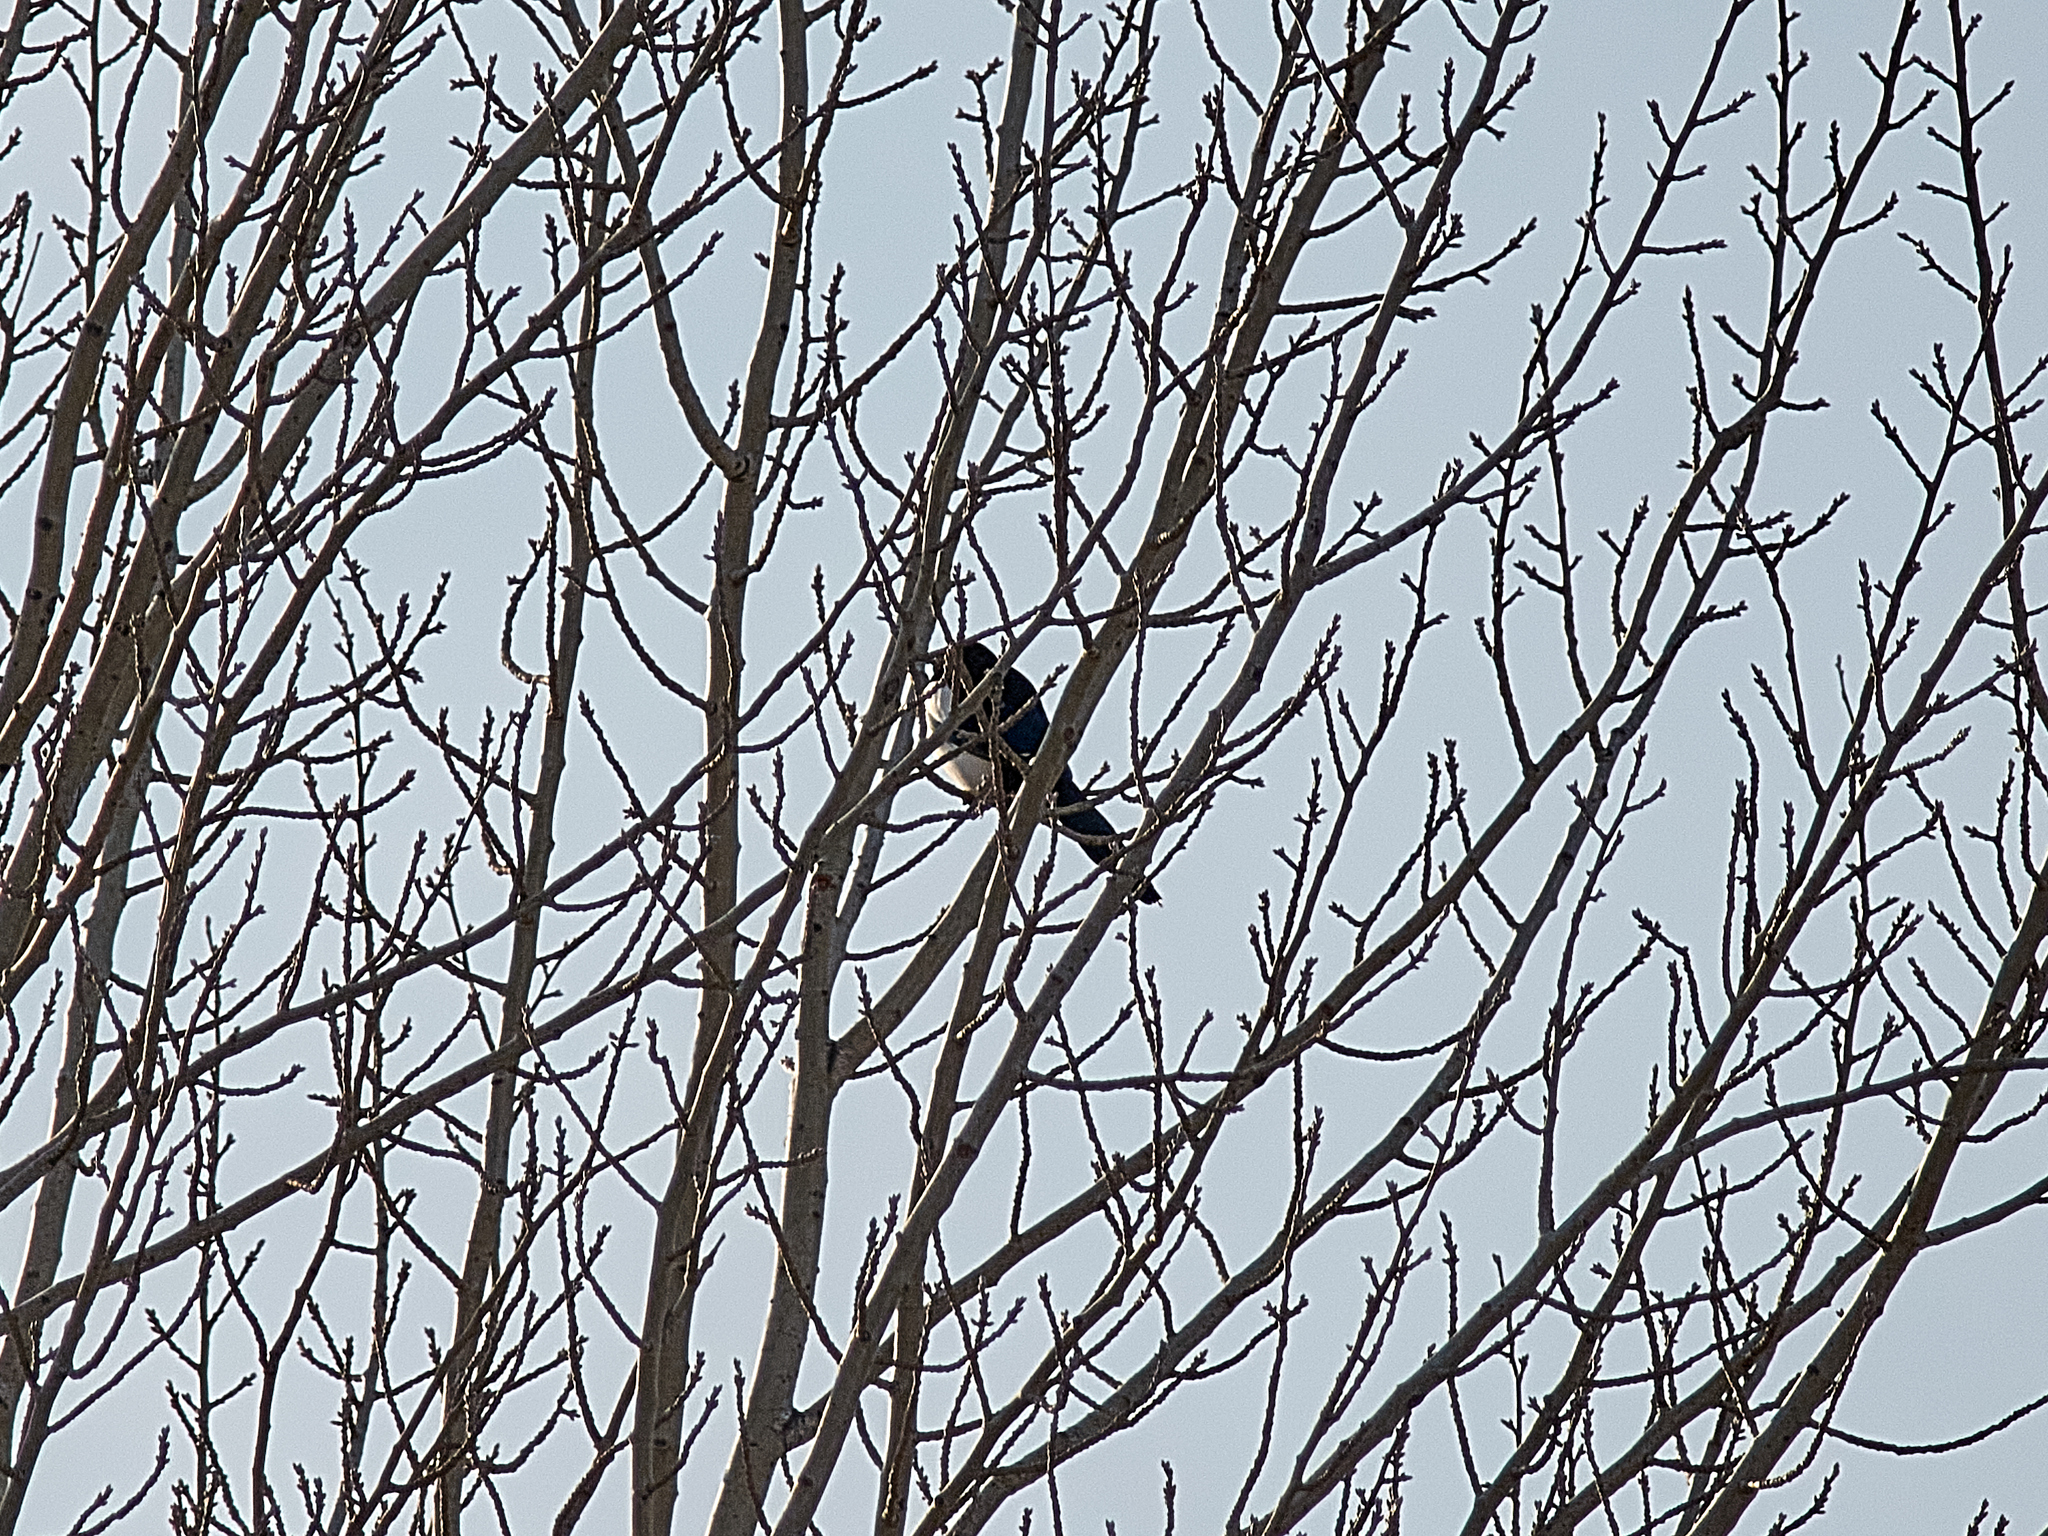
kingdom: Animalia
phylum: Chordata
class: Aves
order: Passeriformes
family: Corvidae
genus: Pica
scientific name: Pica pica
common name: Eurasian magpie
